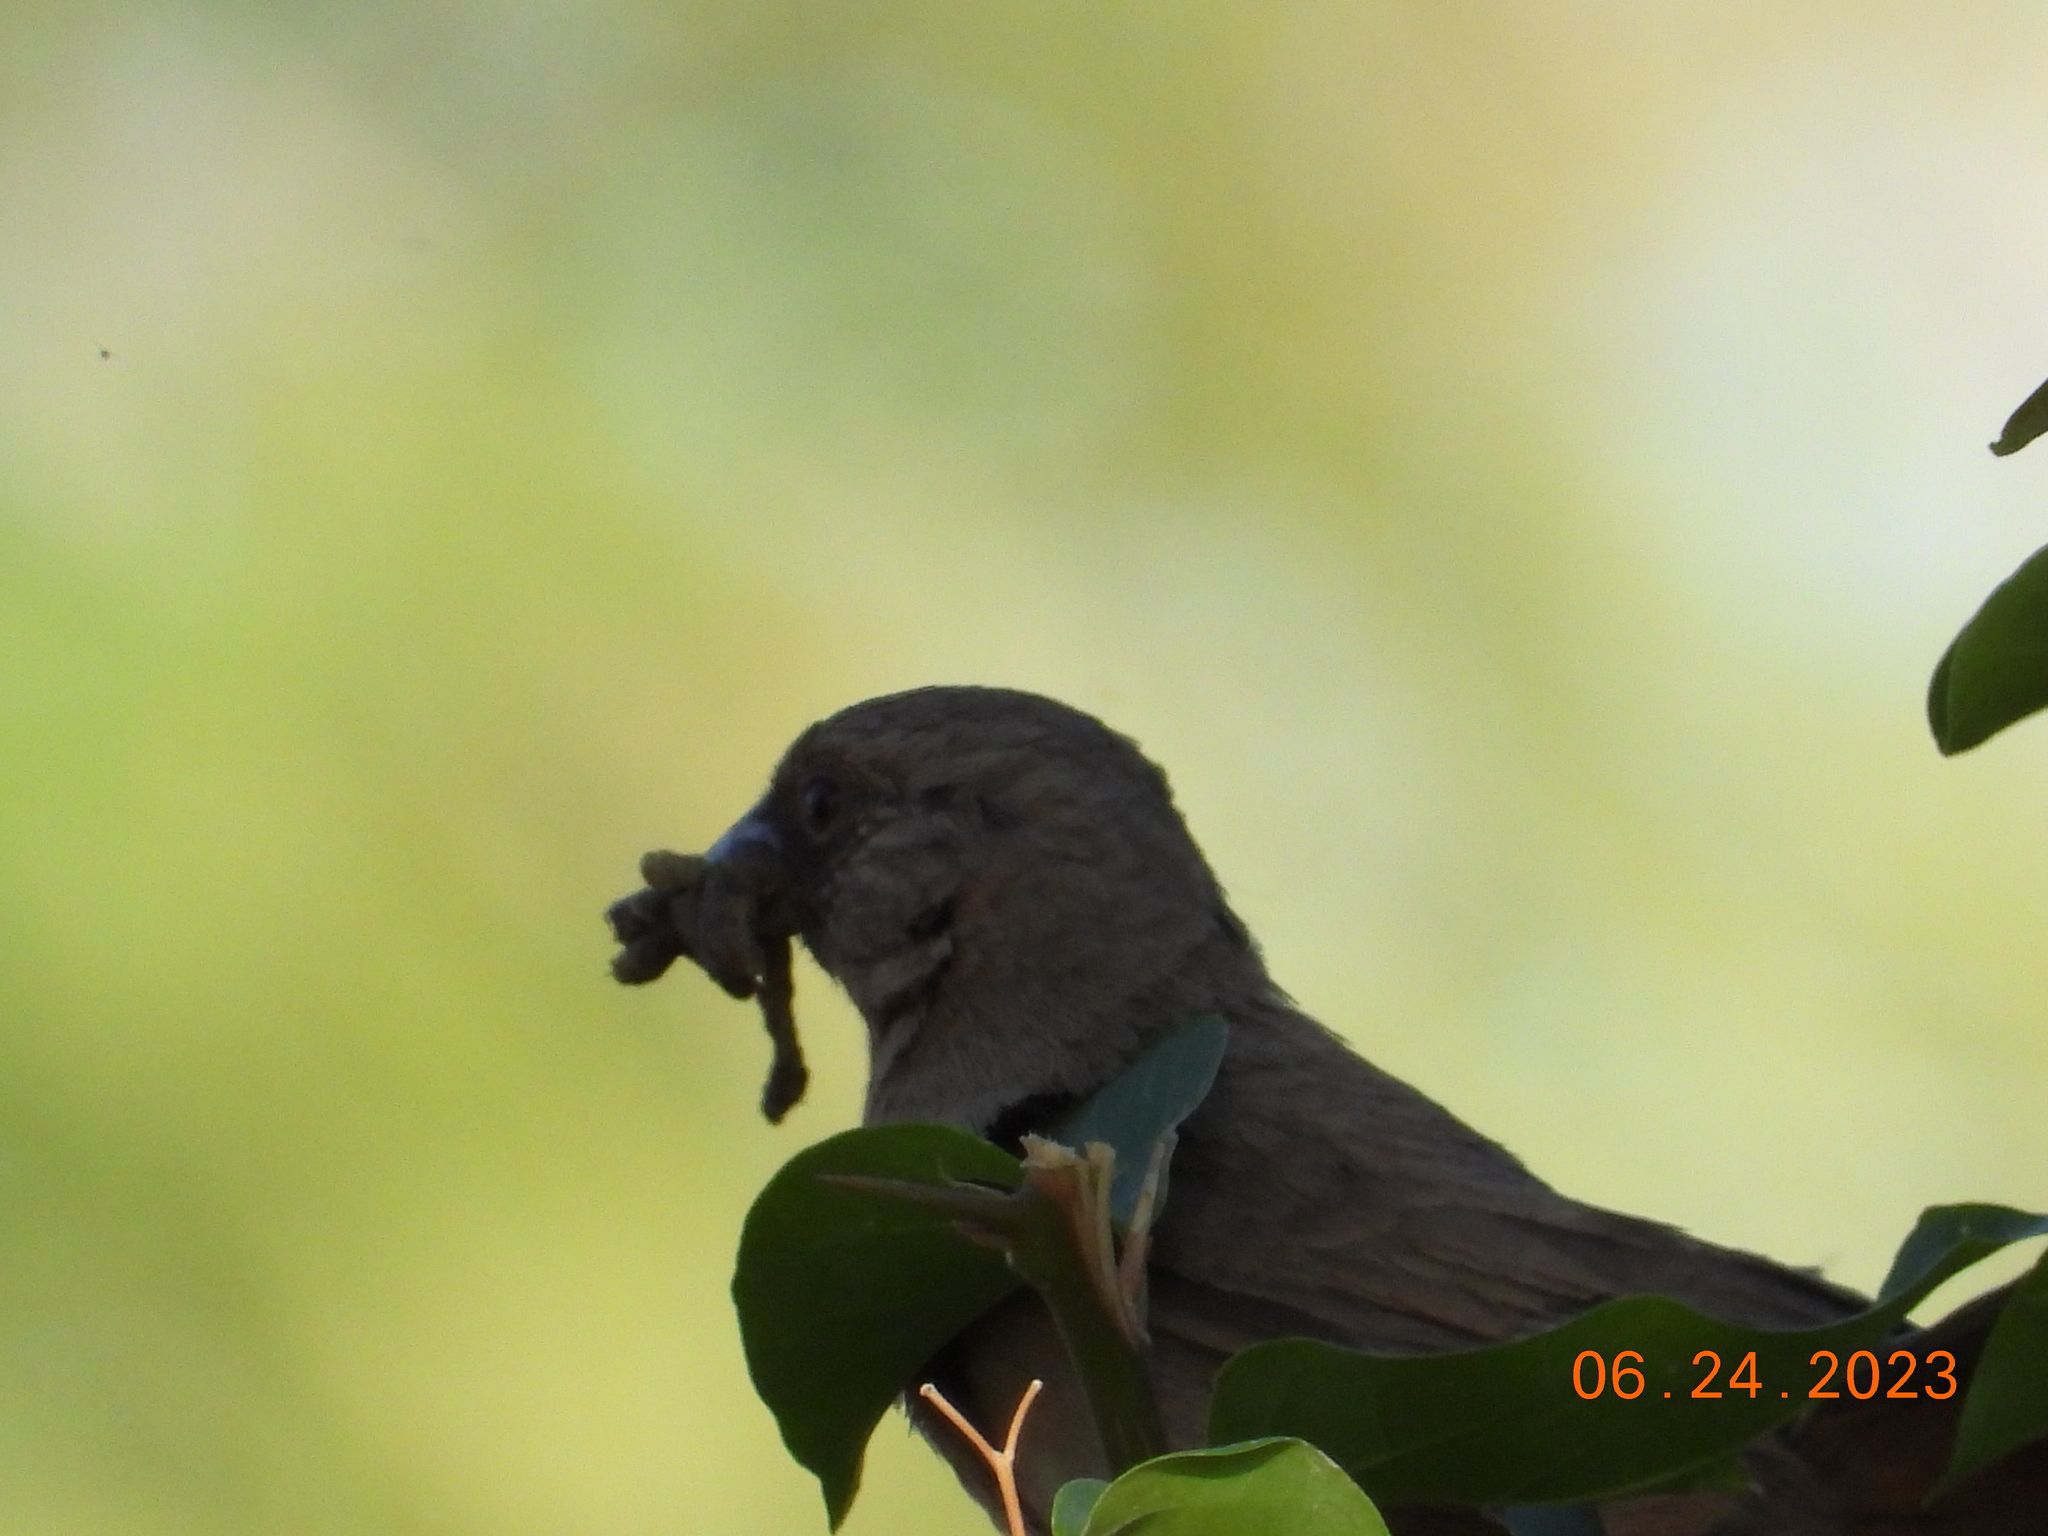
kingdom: Animalia
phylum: Chordata
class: Aves
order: Passeriformes
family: Passerellidae
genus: Melozone
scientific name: Melozone aberti
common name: Abert's towhee
